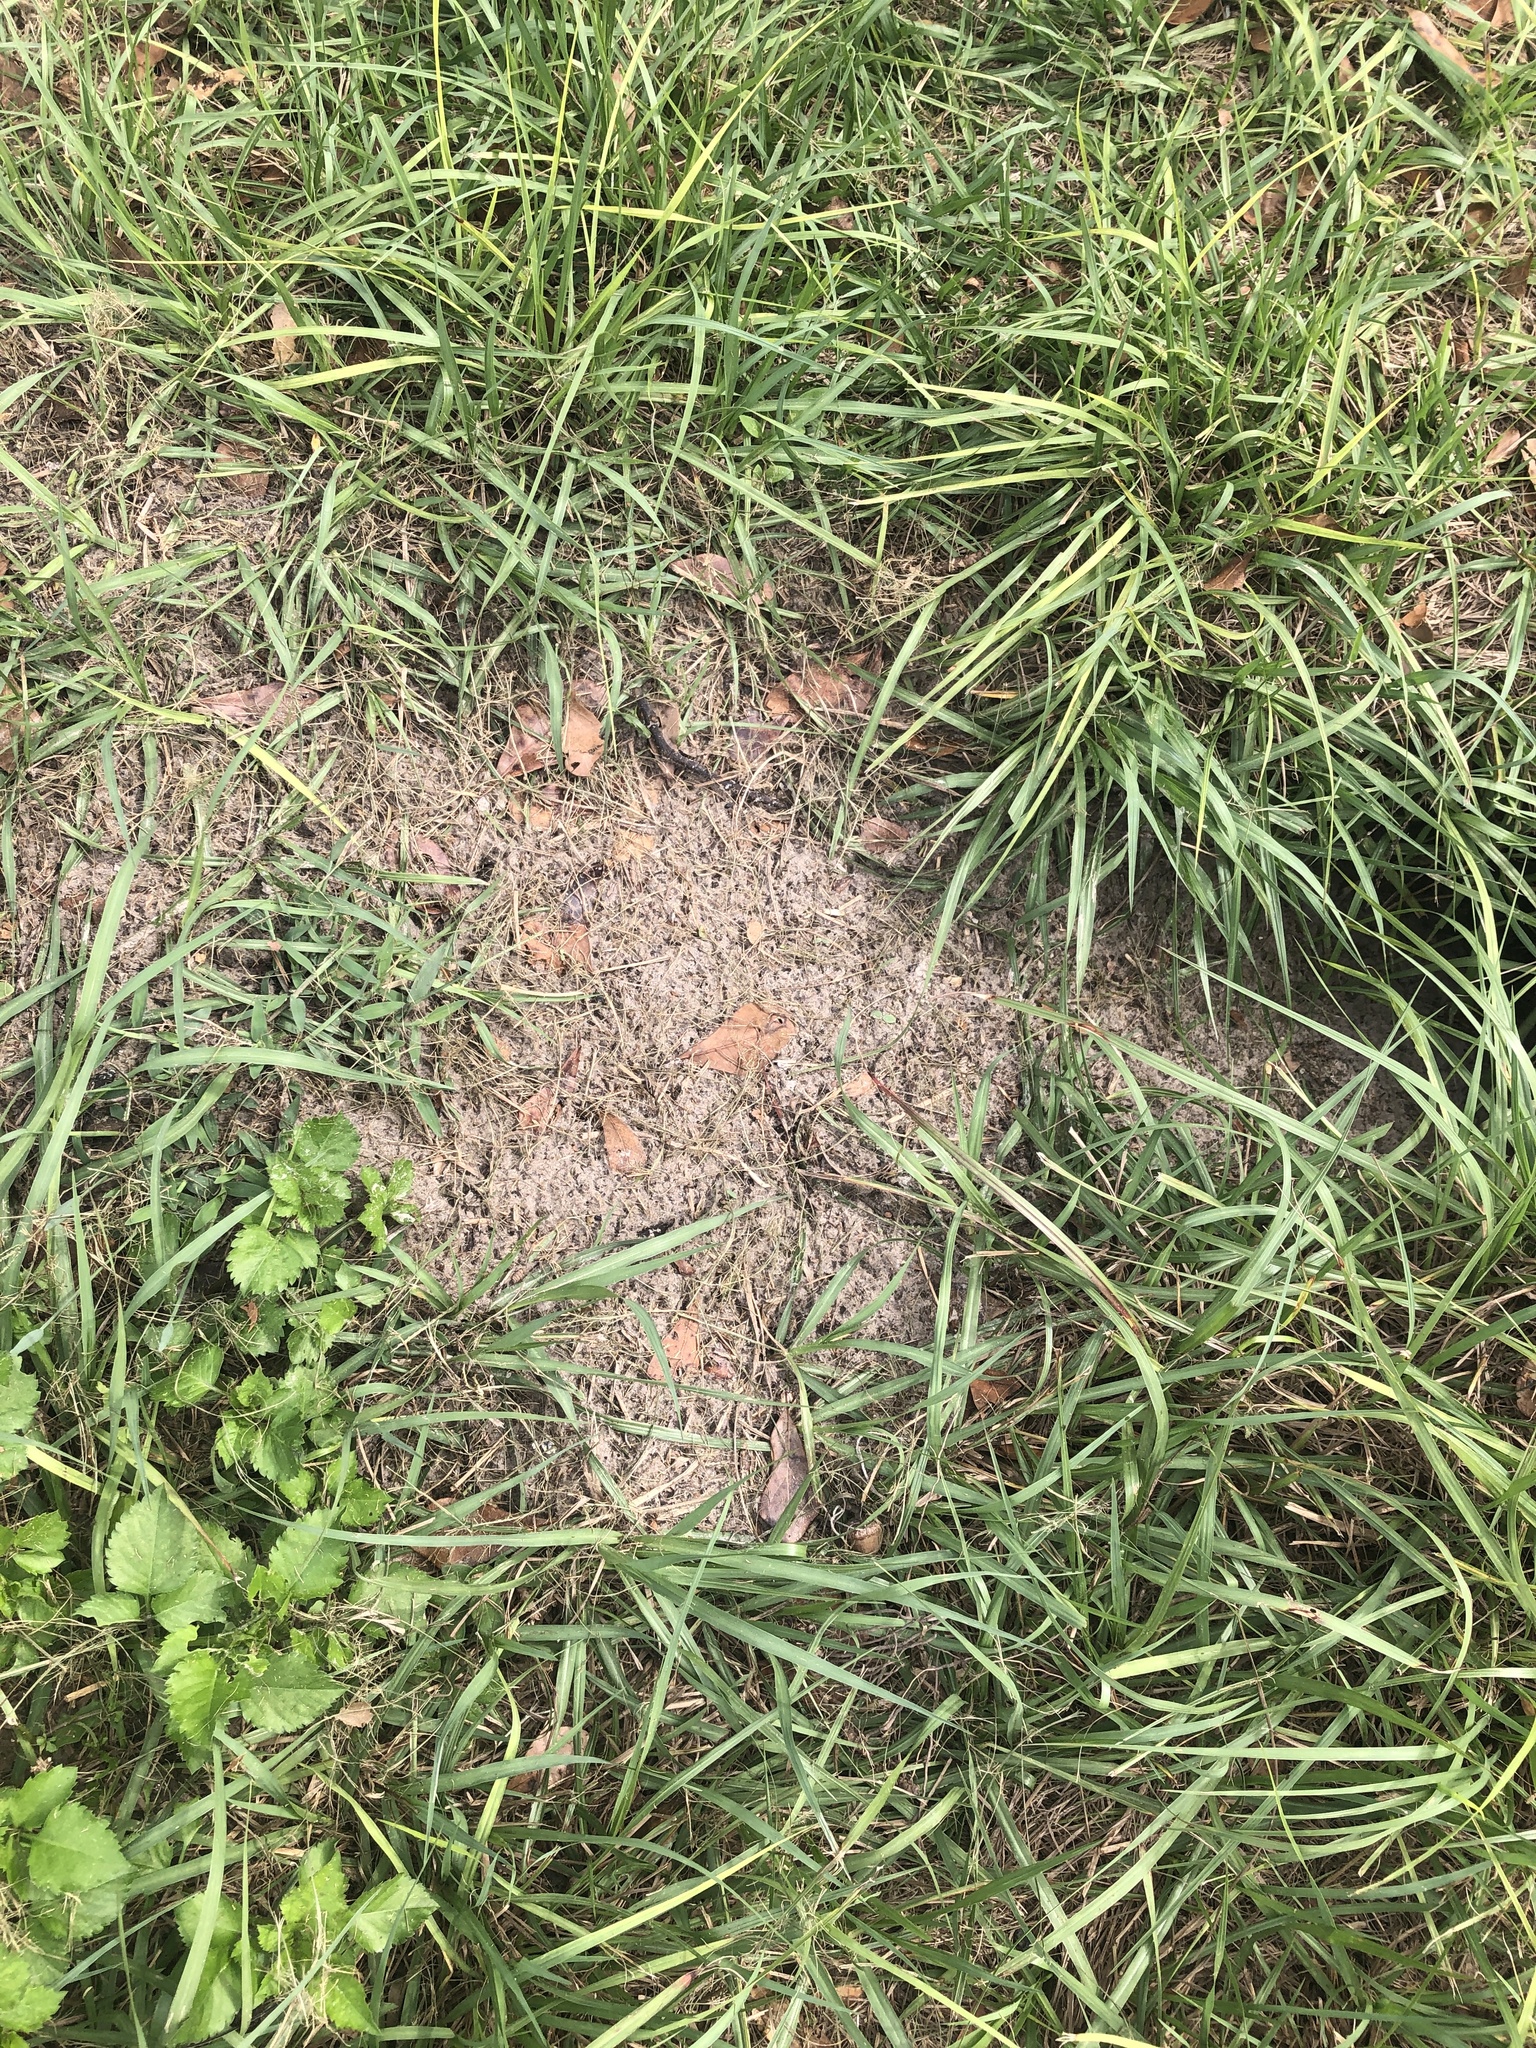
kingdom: Animalia
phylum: Chordata
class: Testudines
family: Testudinidae
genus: Gopherus
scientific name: Gopherus polyphemus
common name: Florida gopher tortoise
